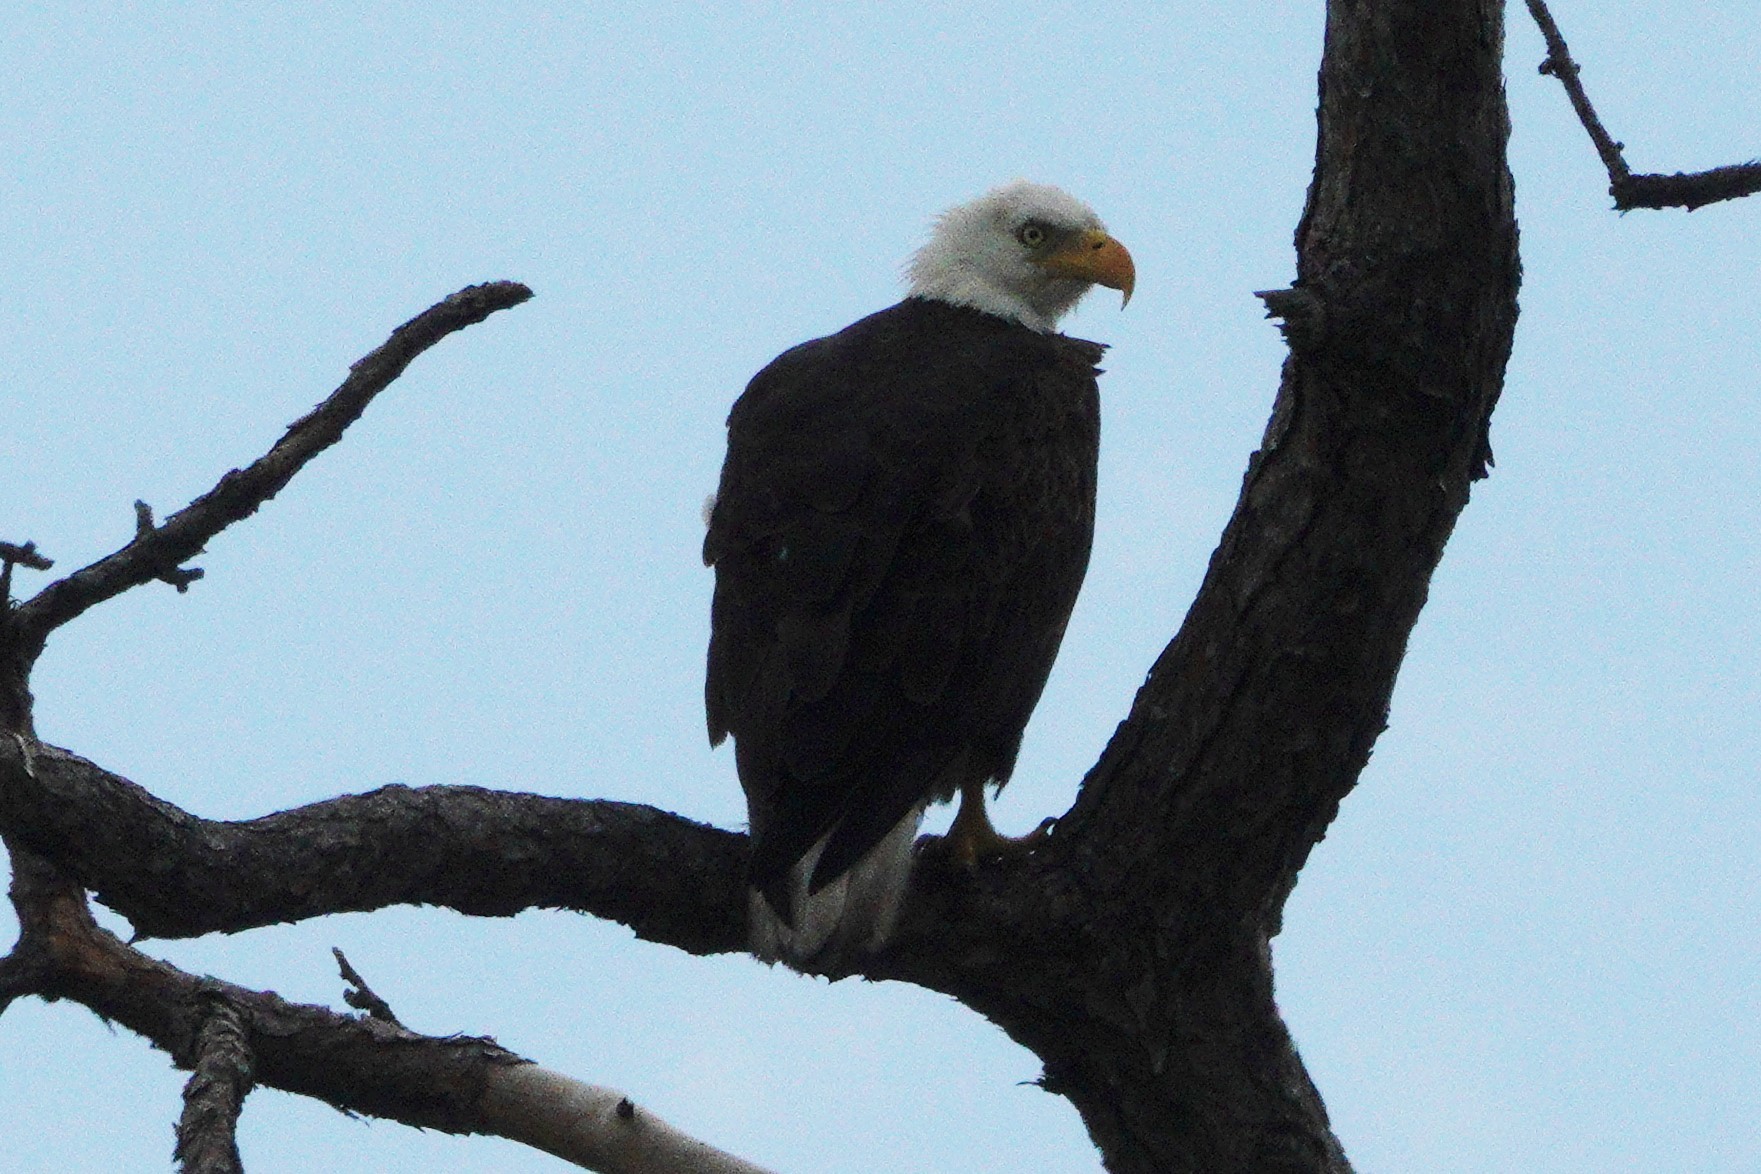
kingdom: Animalia
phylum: Chordata
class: Aves
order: Accipitriformes
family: Accipitridae
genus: Haliaeetus
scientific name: Haliaeetus leucocephalus
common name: Bald eagle
